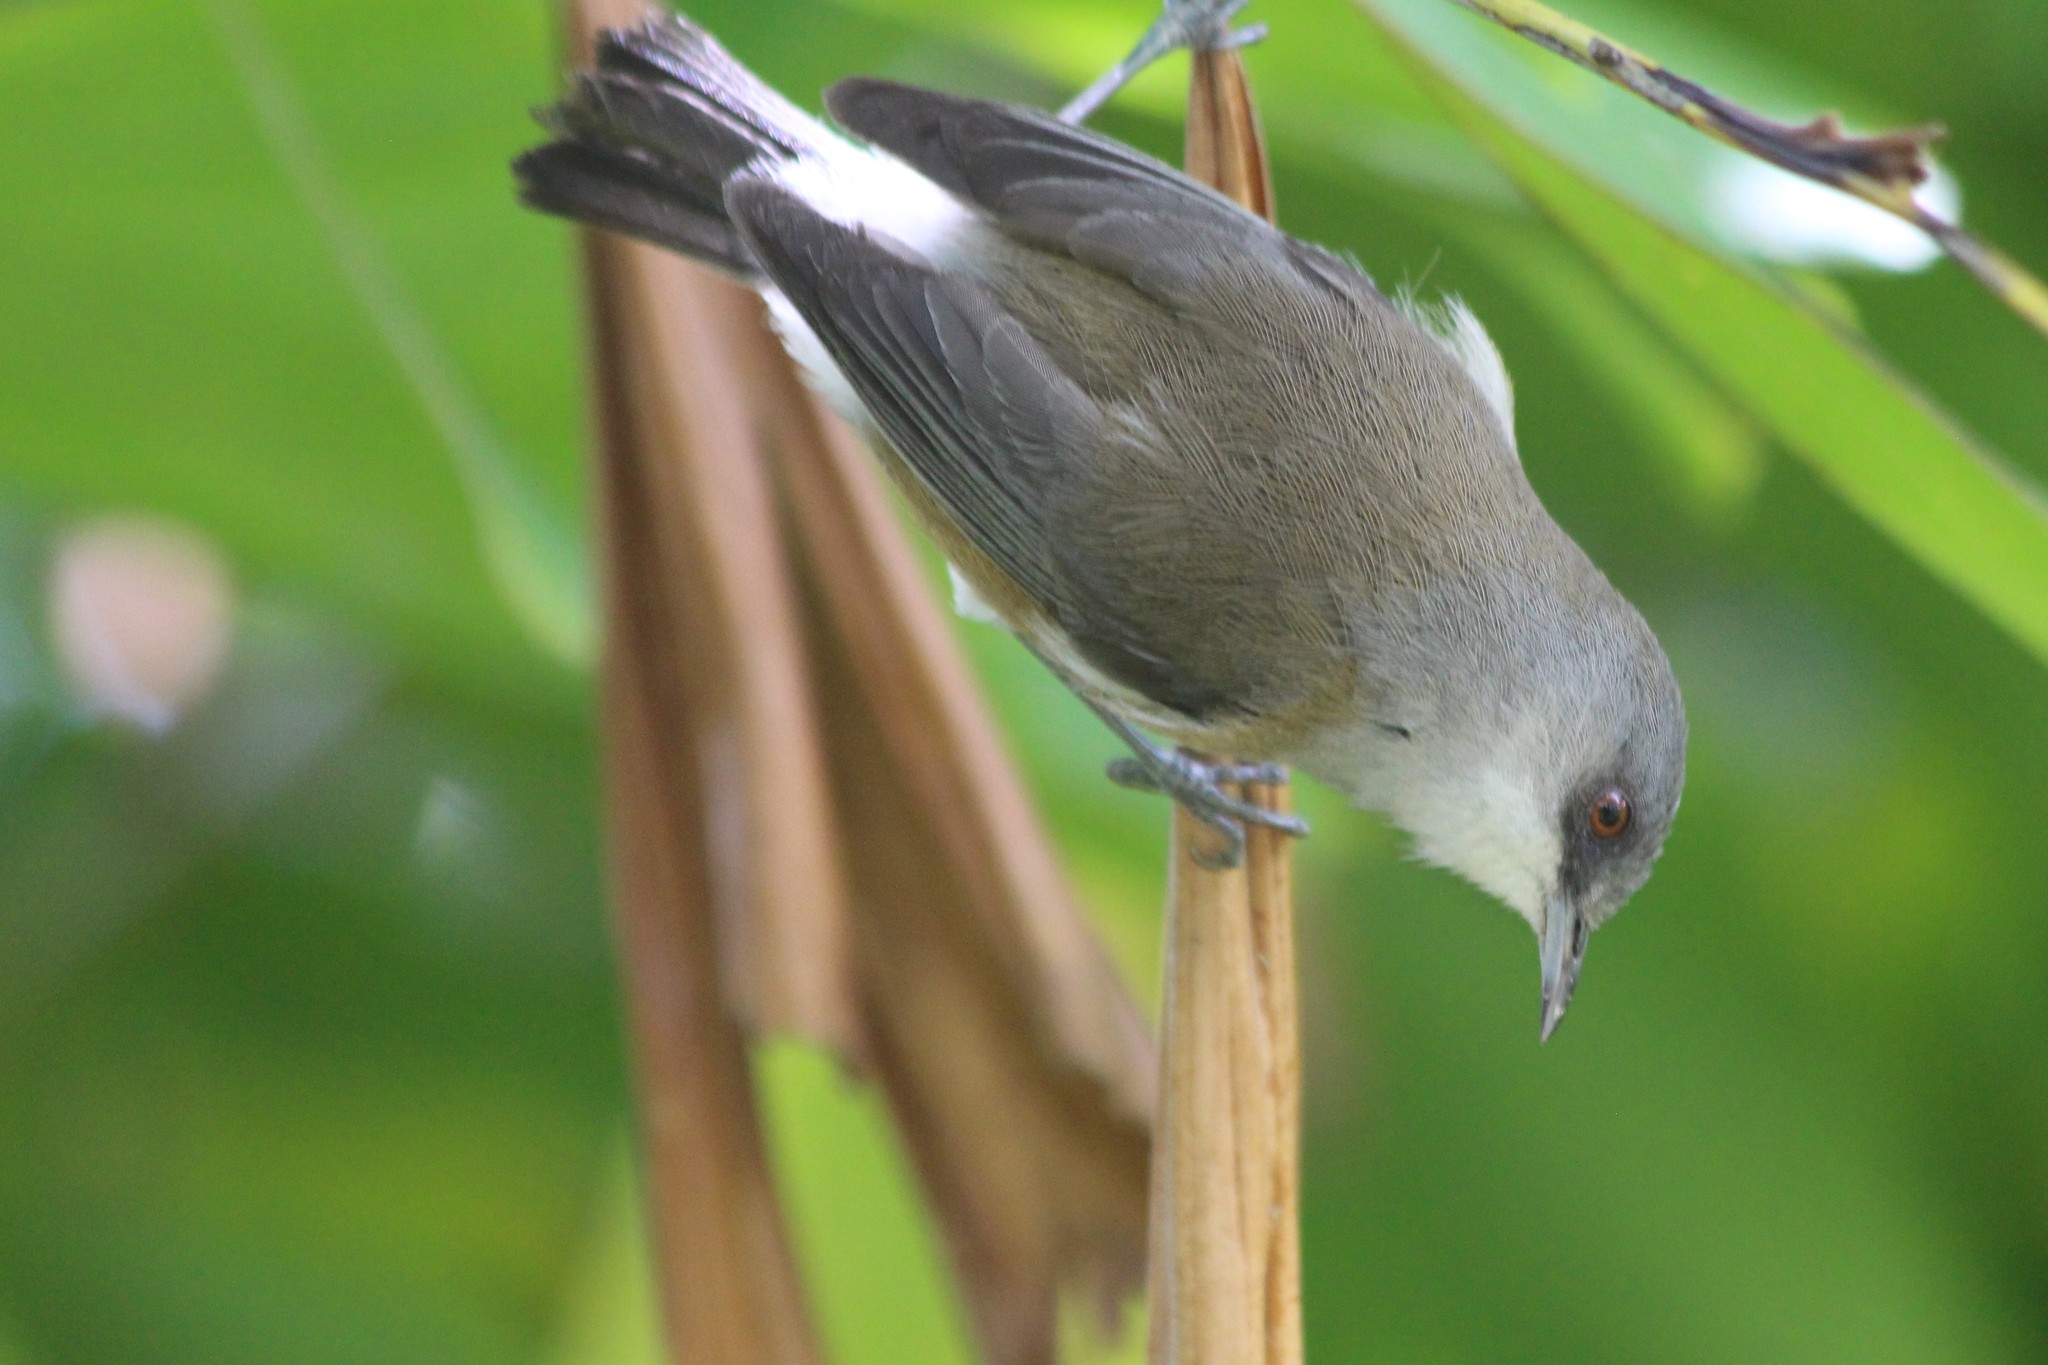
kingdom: Animalia
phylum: Chordata
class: Aves
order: Passeriformes
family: Zosteropidae
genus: Zosterops
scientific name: Zosterops borbonicus
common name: Reunion grey white-eye
